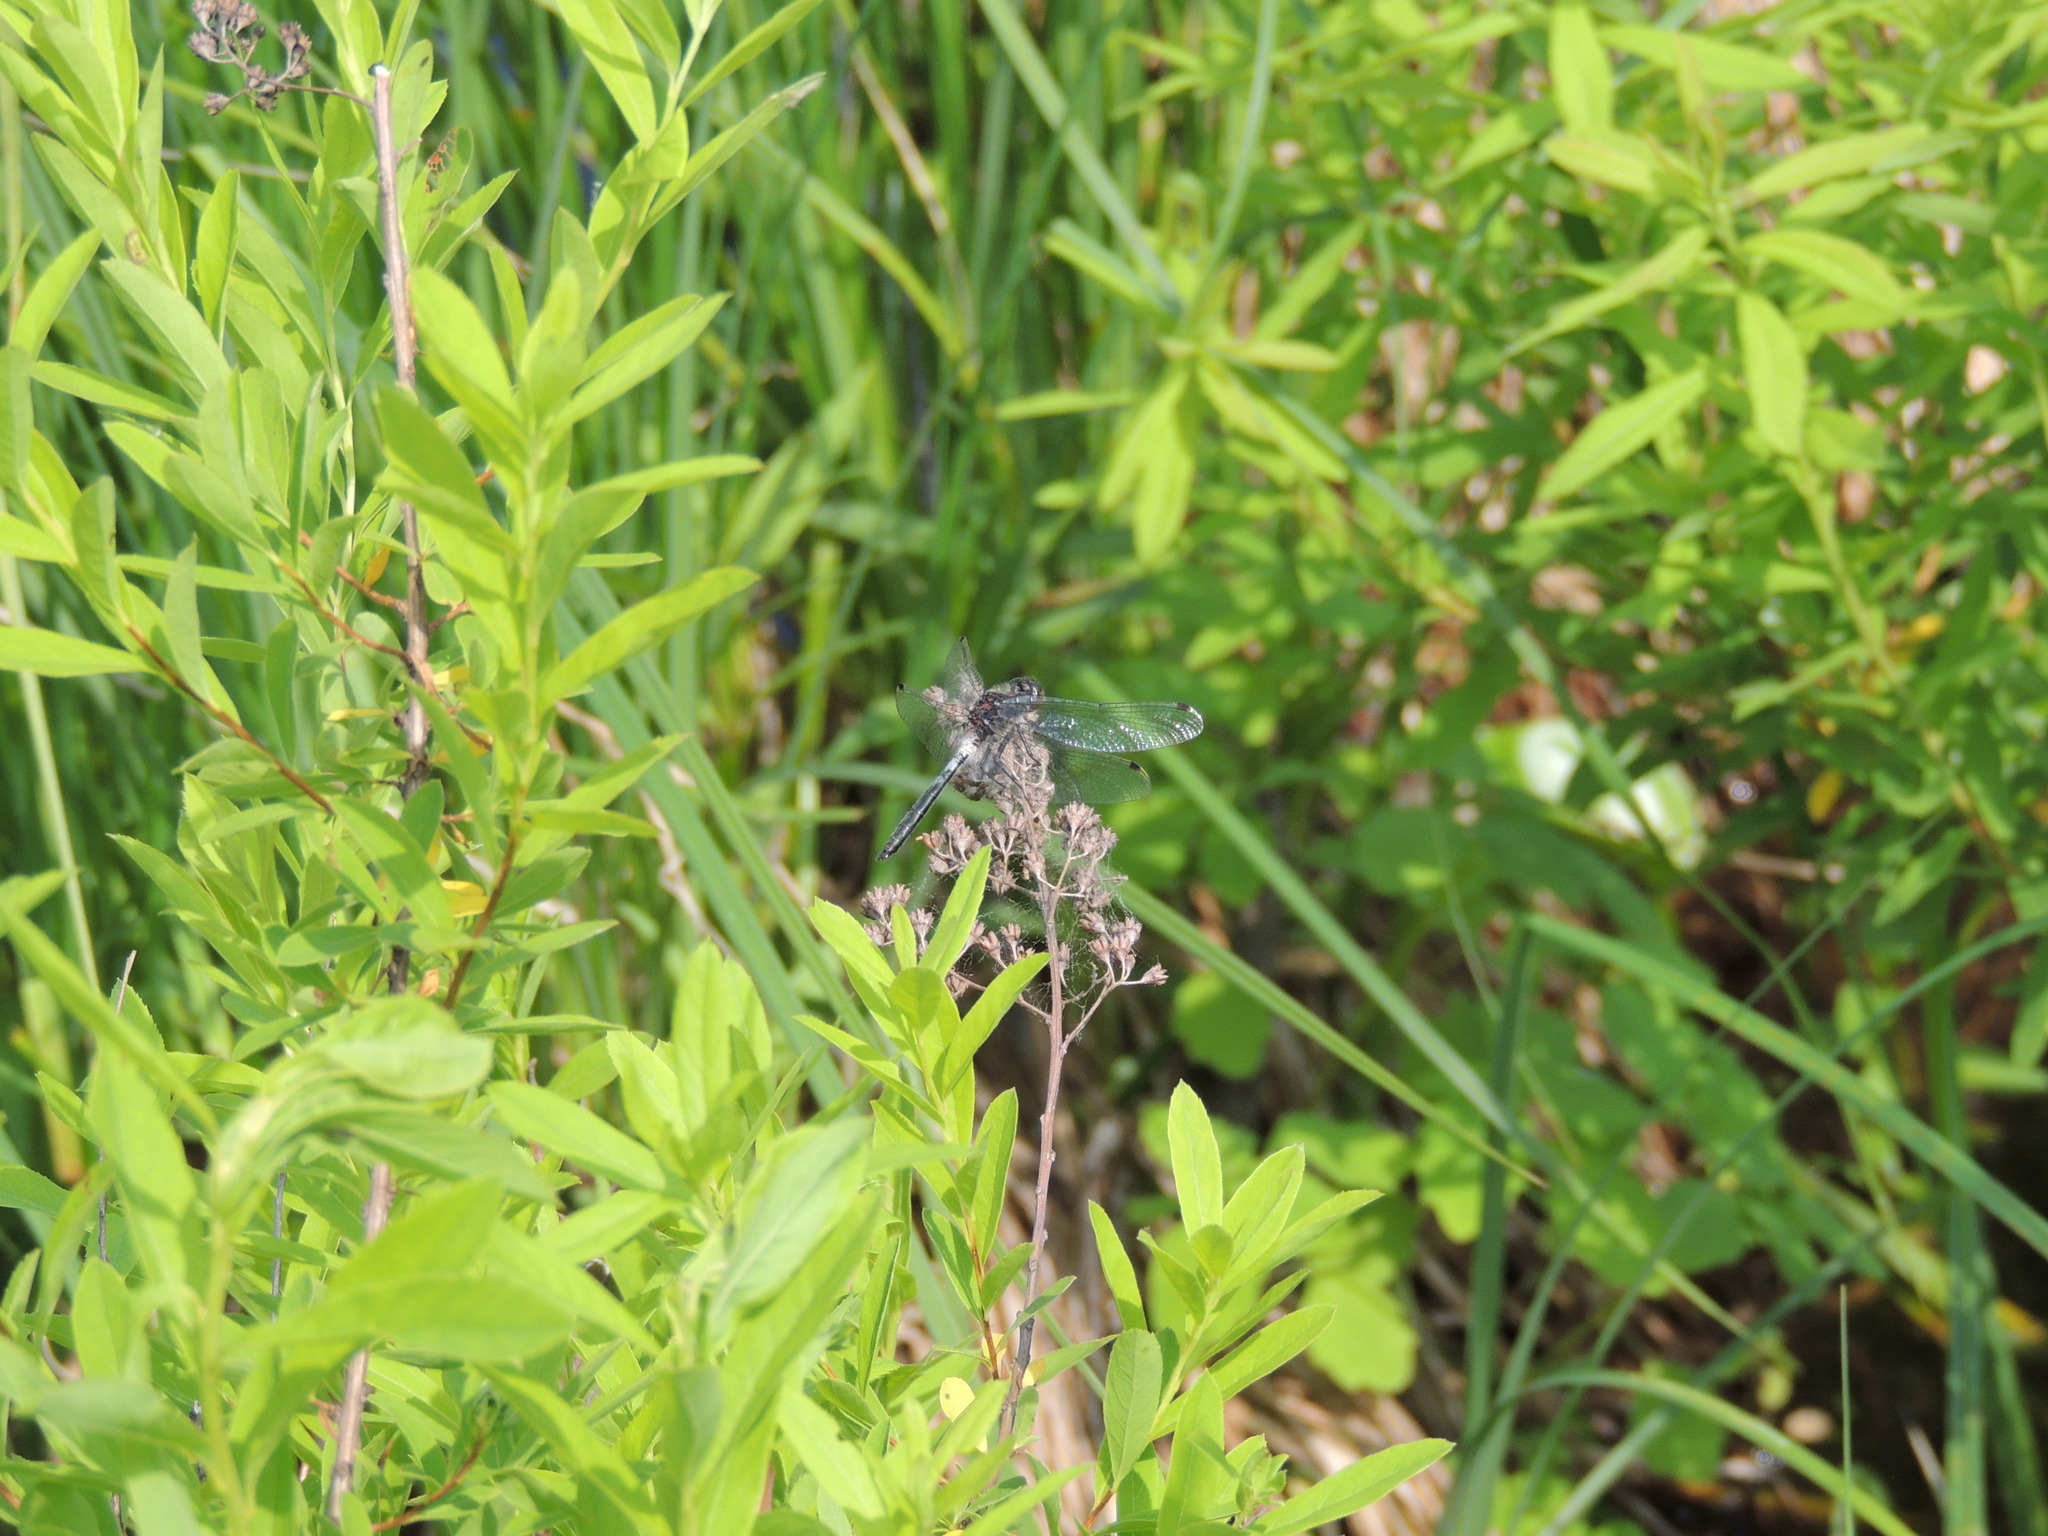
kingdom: Animalia
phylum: Arthropoda
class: Insecta
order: Odonata
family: Libellulidae
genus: Leucorrhinia
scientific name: Leucorrhinia proxima
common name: Belted whiteface
